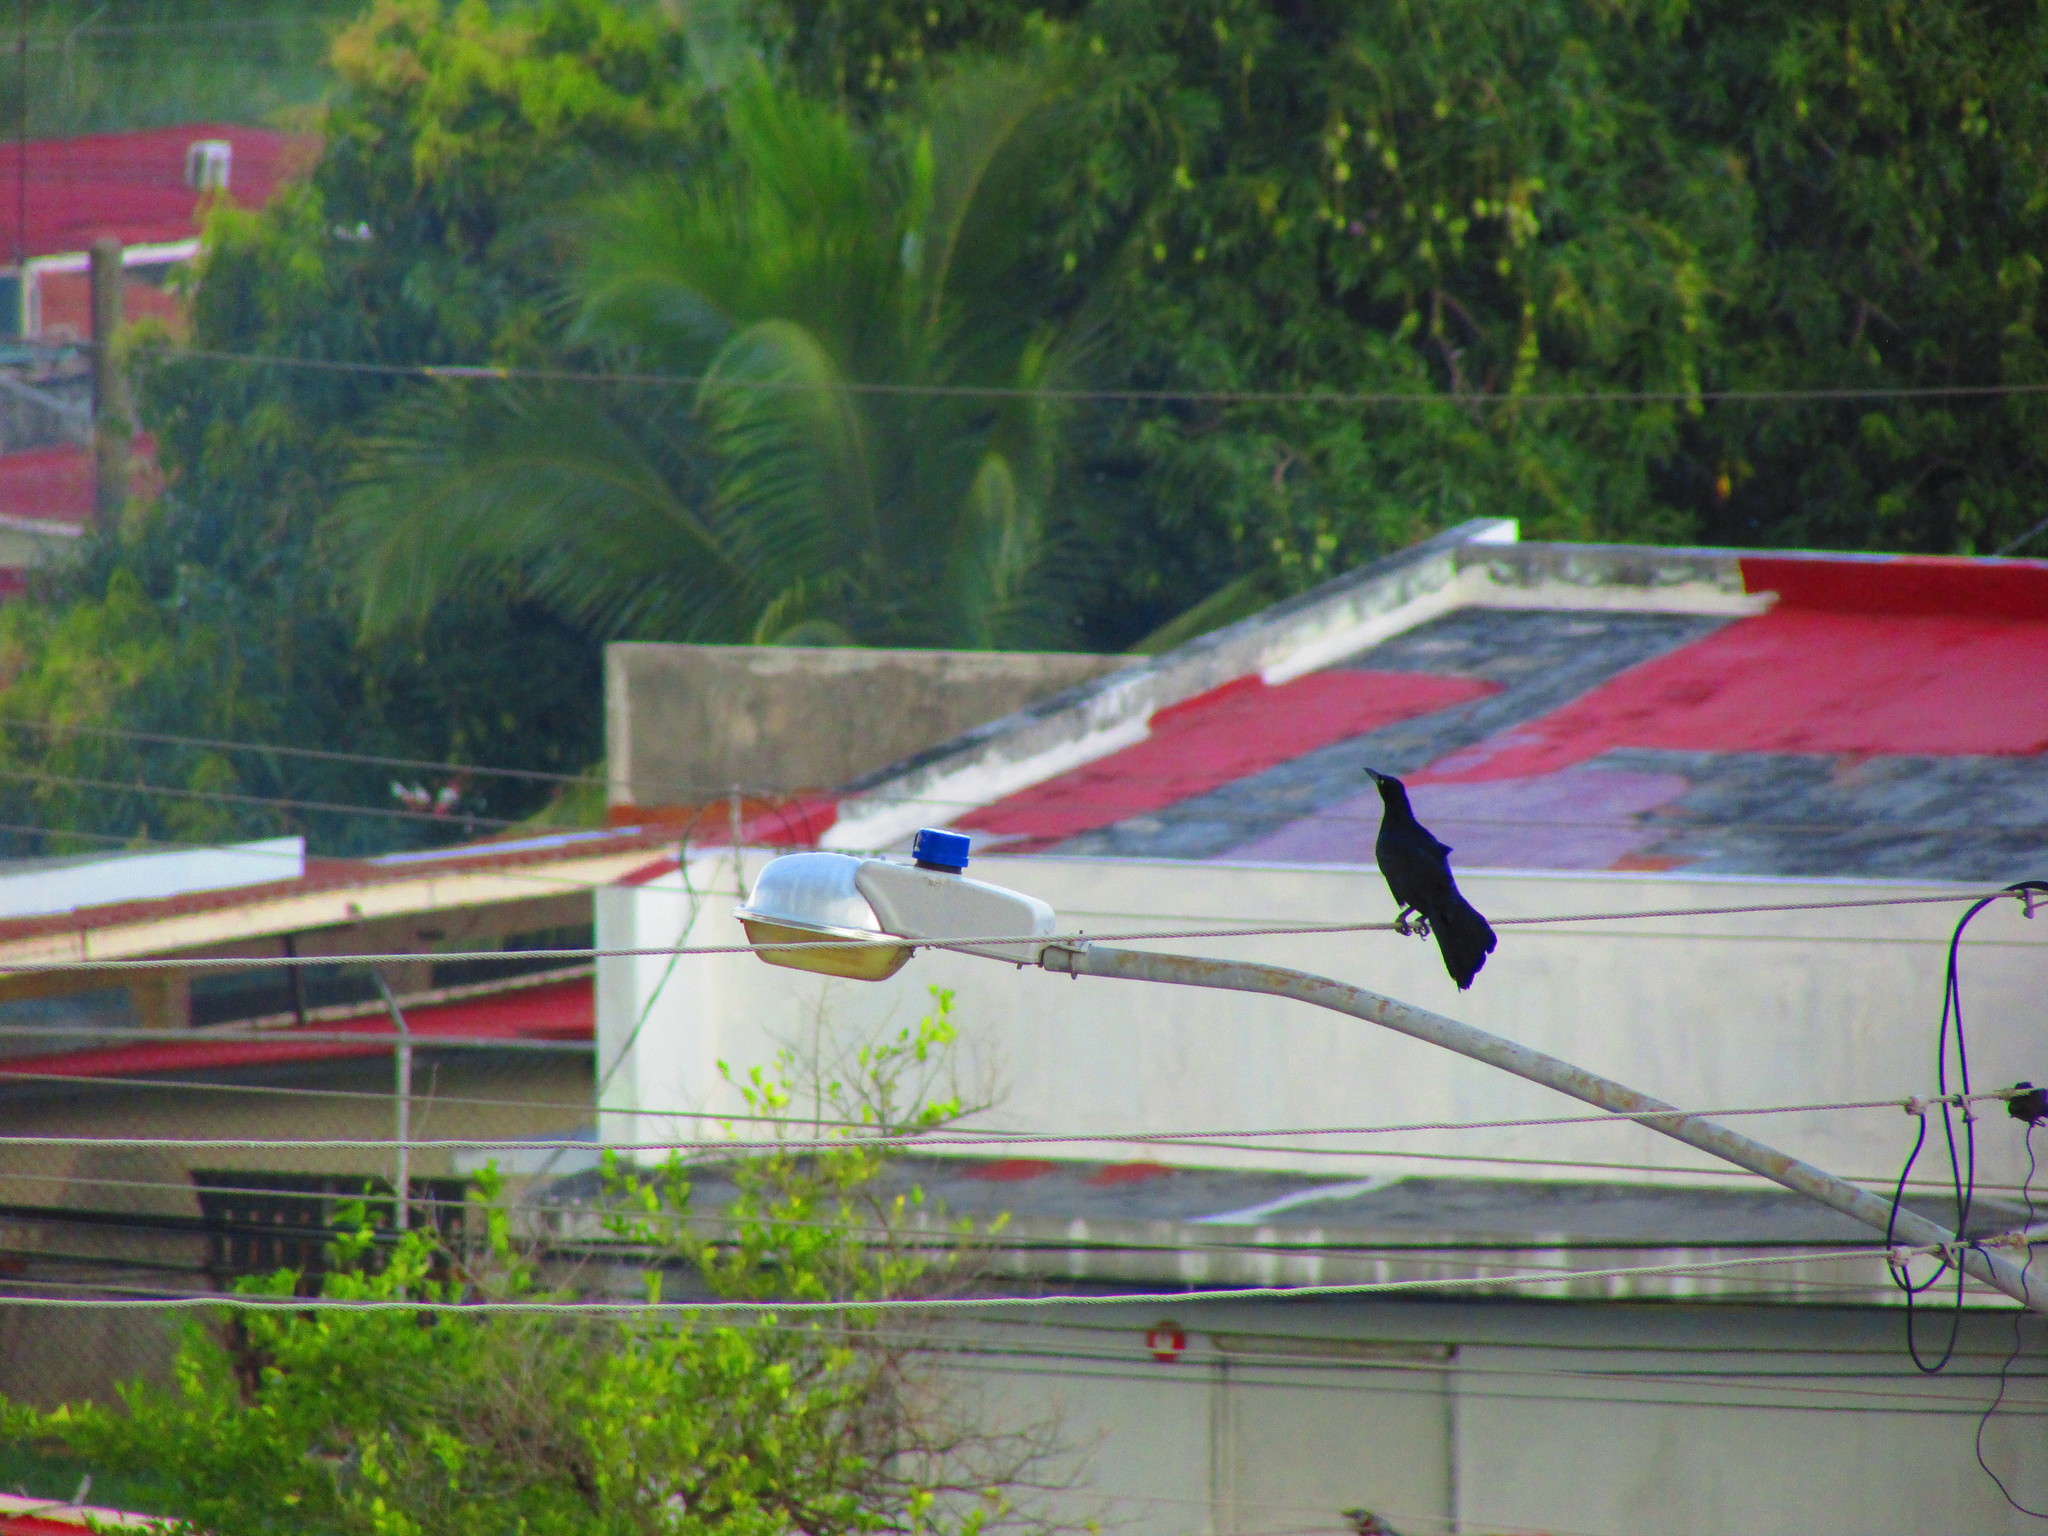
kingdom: Animalia
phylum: Chordata
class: Aves
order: Passeriformes
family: Icteridae
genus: Quiscalus
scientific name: Quiscalus mexicanus
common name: Great-tailed grackle
